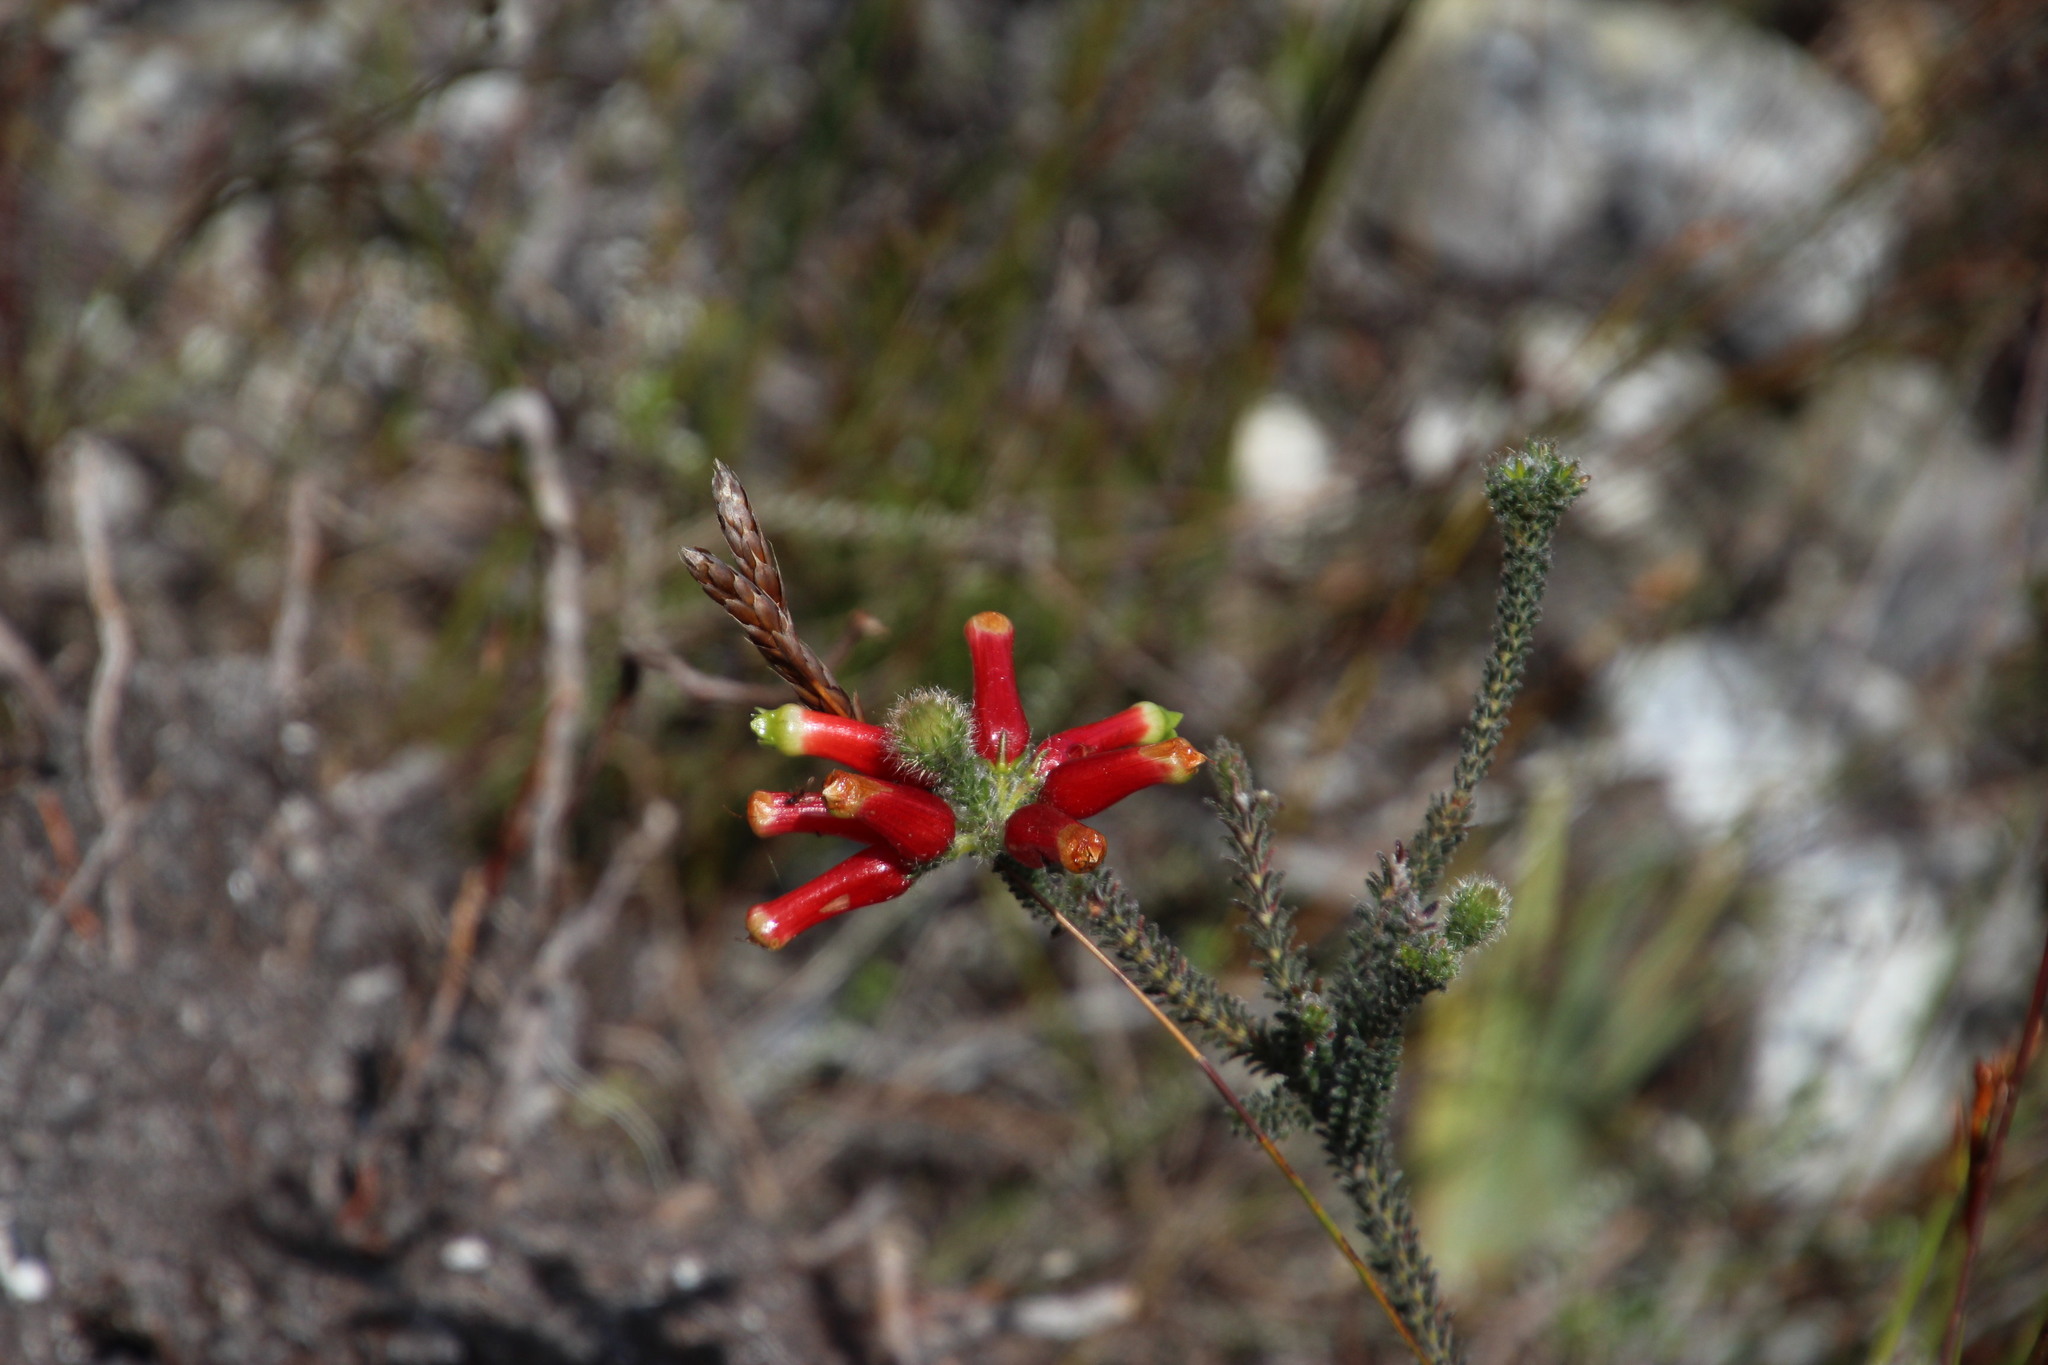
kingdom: Plantae
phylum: Tracheophyta
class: Magnoliopsida
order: Ericales
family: Ericaceae
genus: Erica
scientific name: Erica massonii
